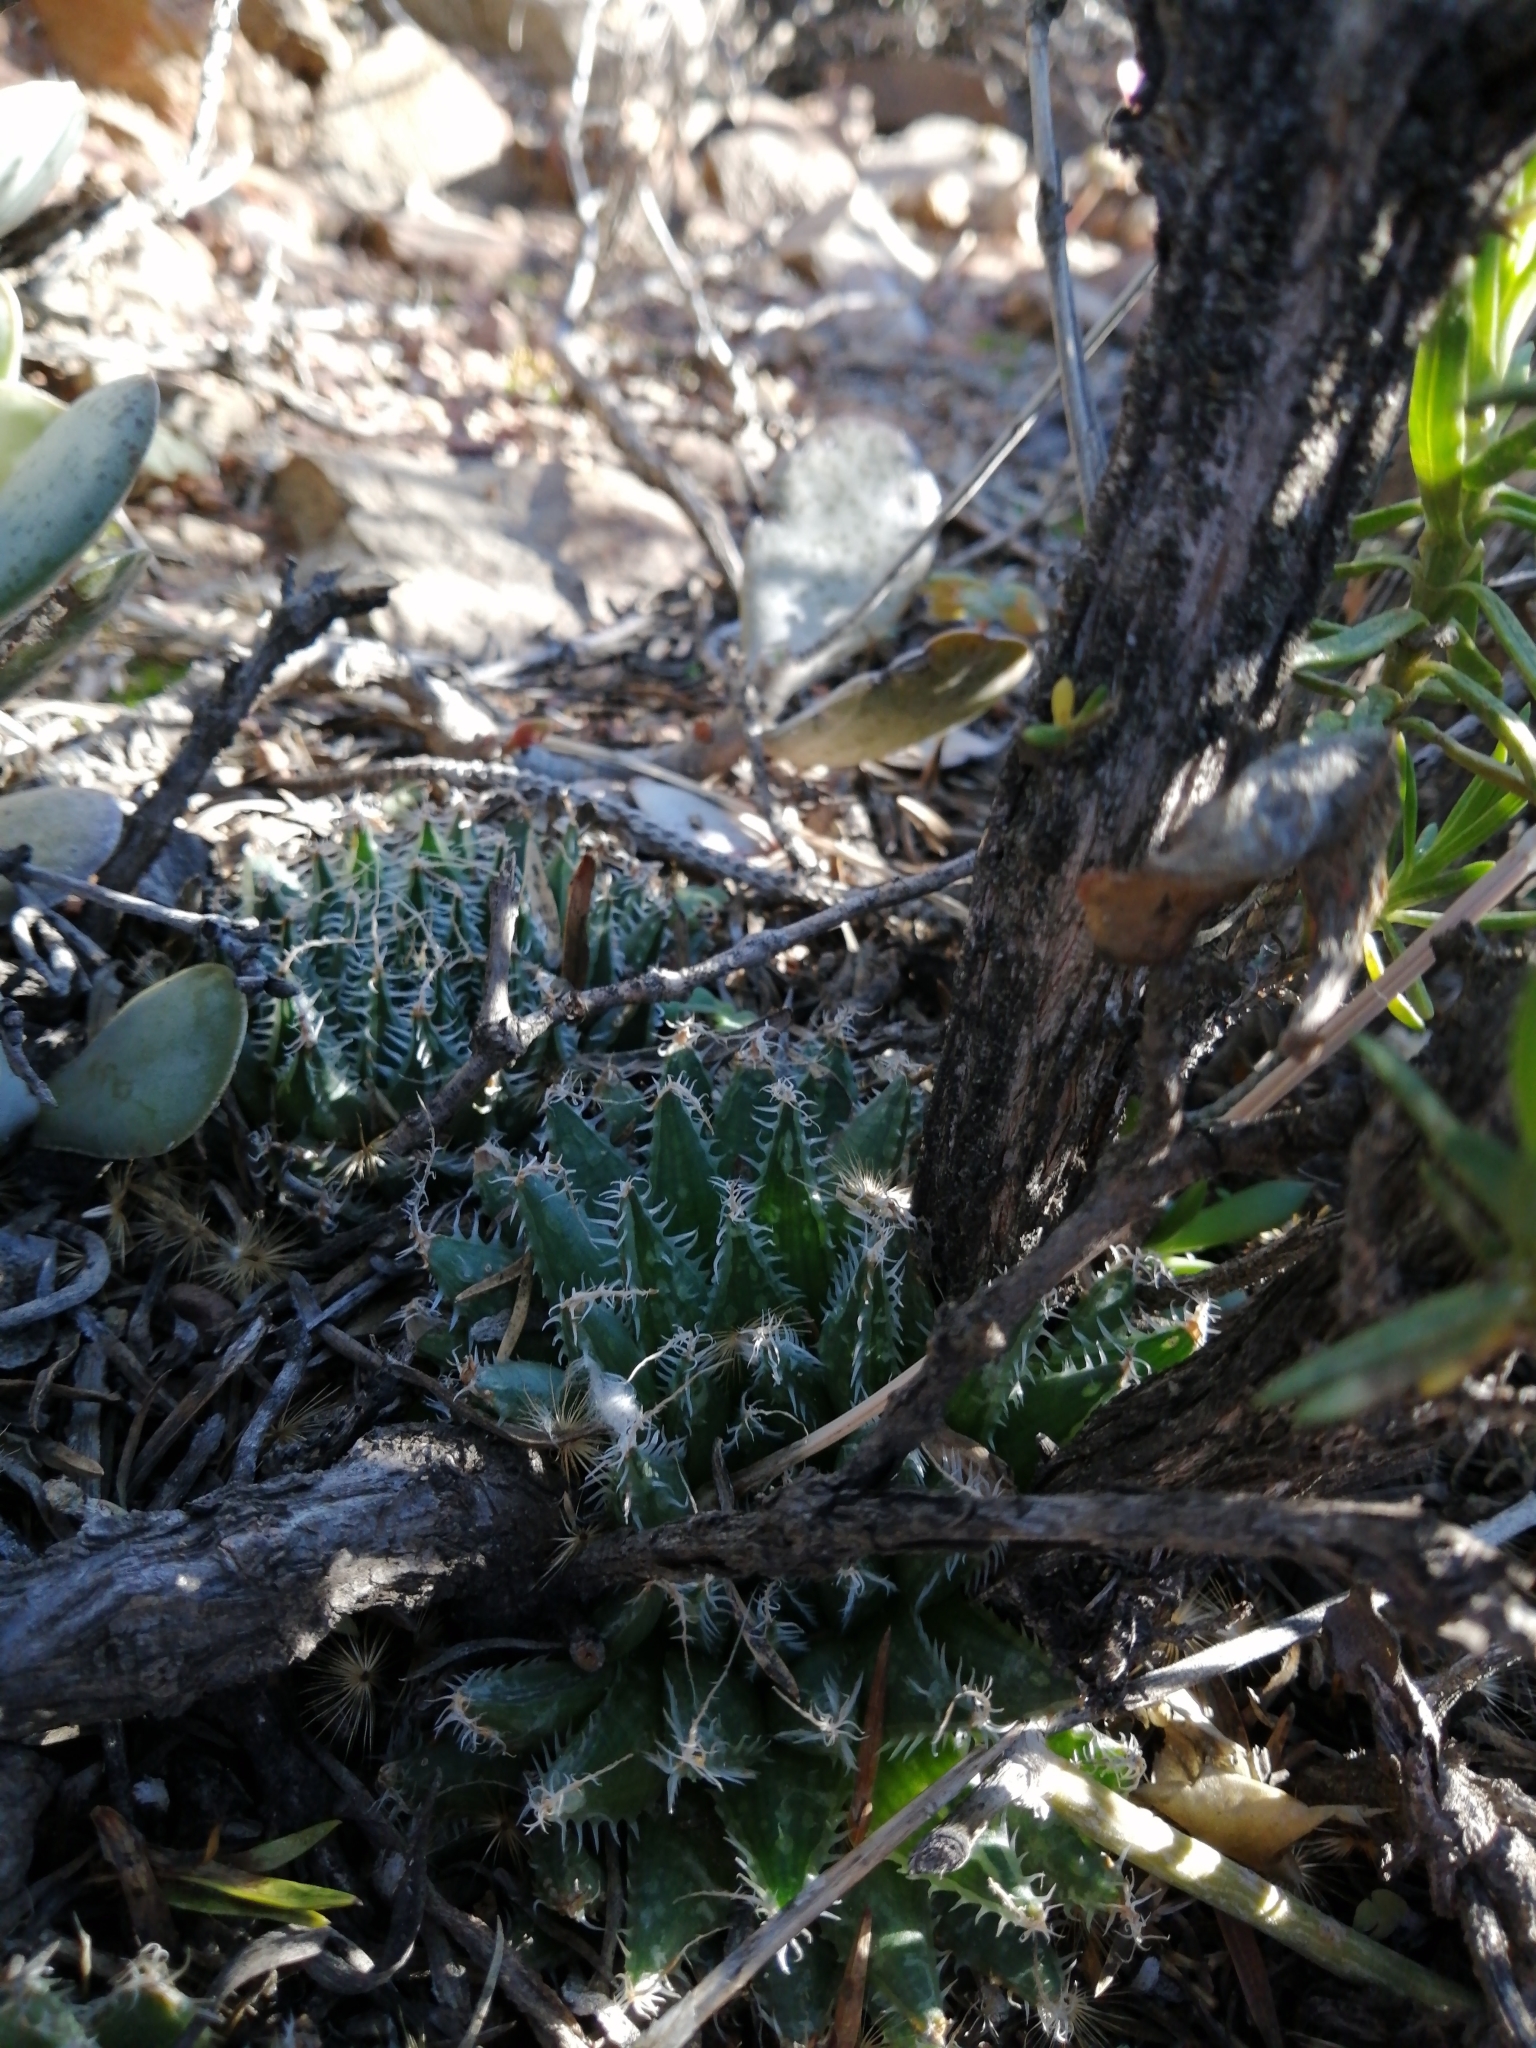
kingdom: Plantae
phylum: Tracheophyta
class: Liliopsida
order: Asparagales
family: Asphodelaceae
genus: Haworthia
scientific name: Haworthia arachnoidea
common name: Cobweb-aloe
